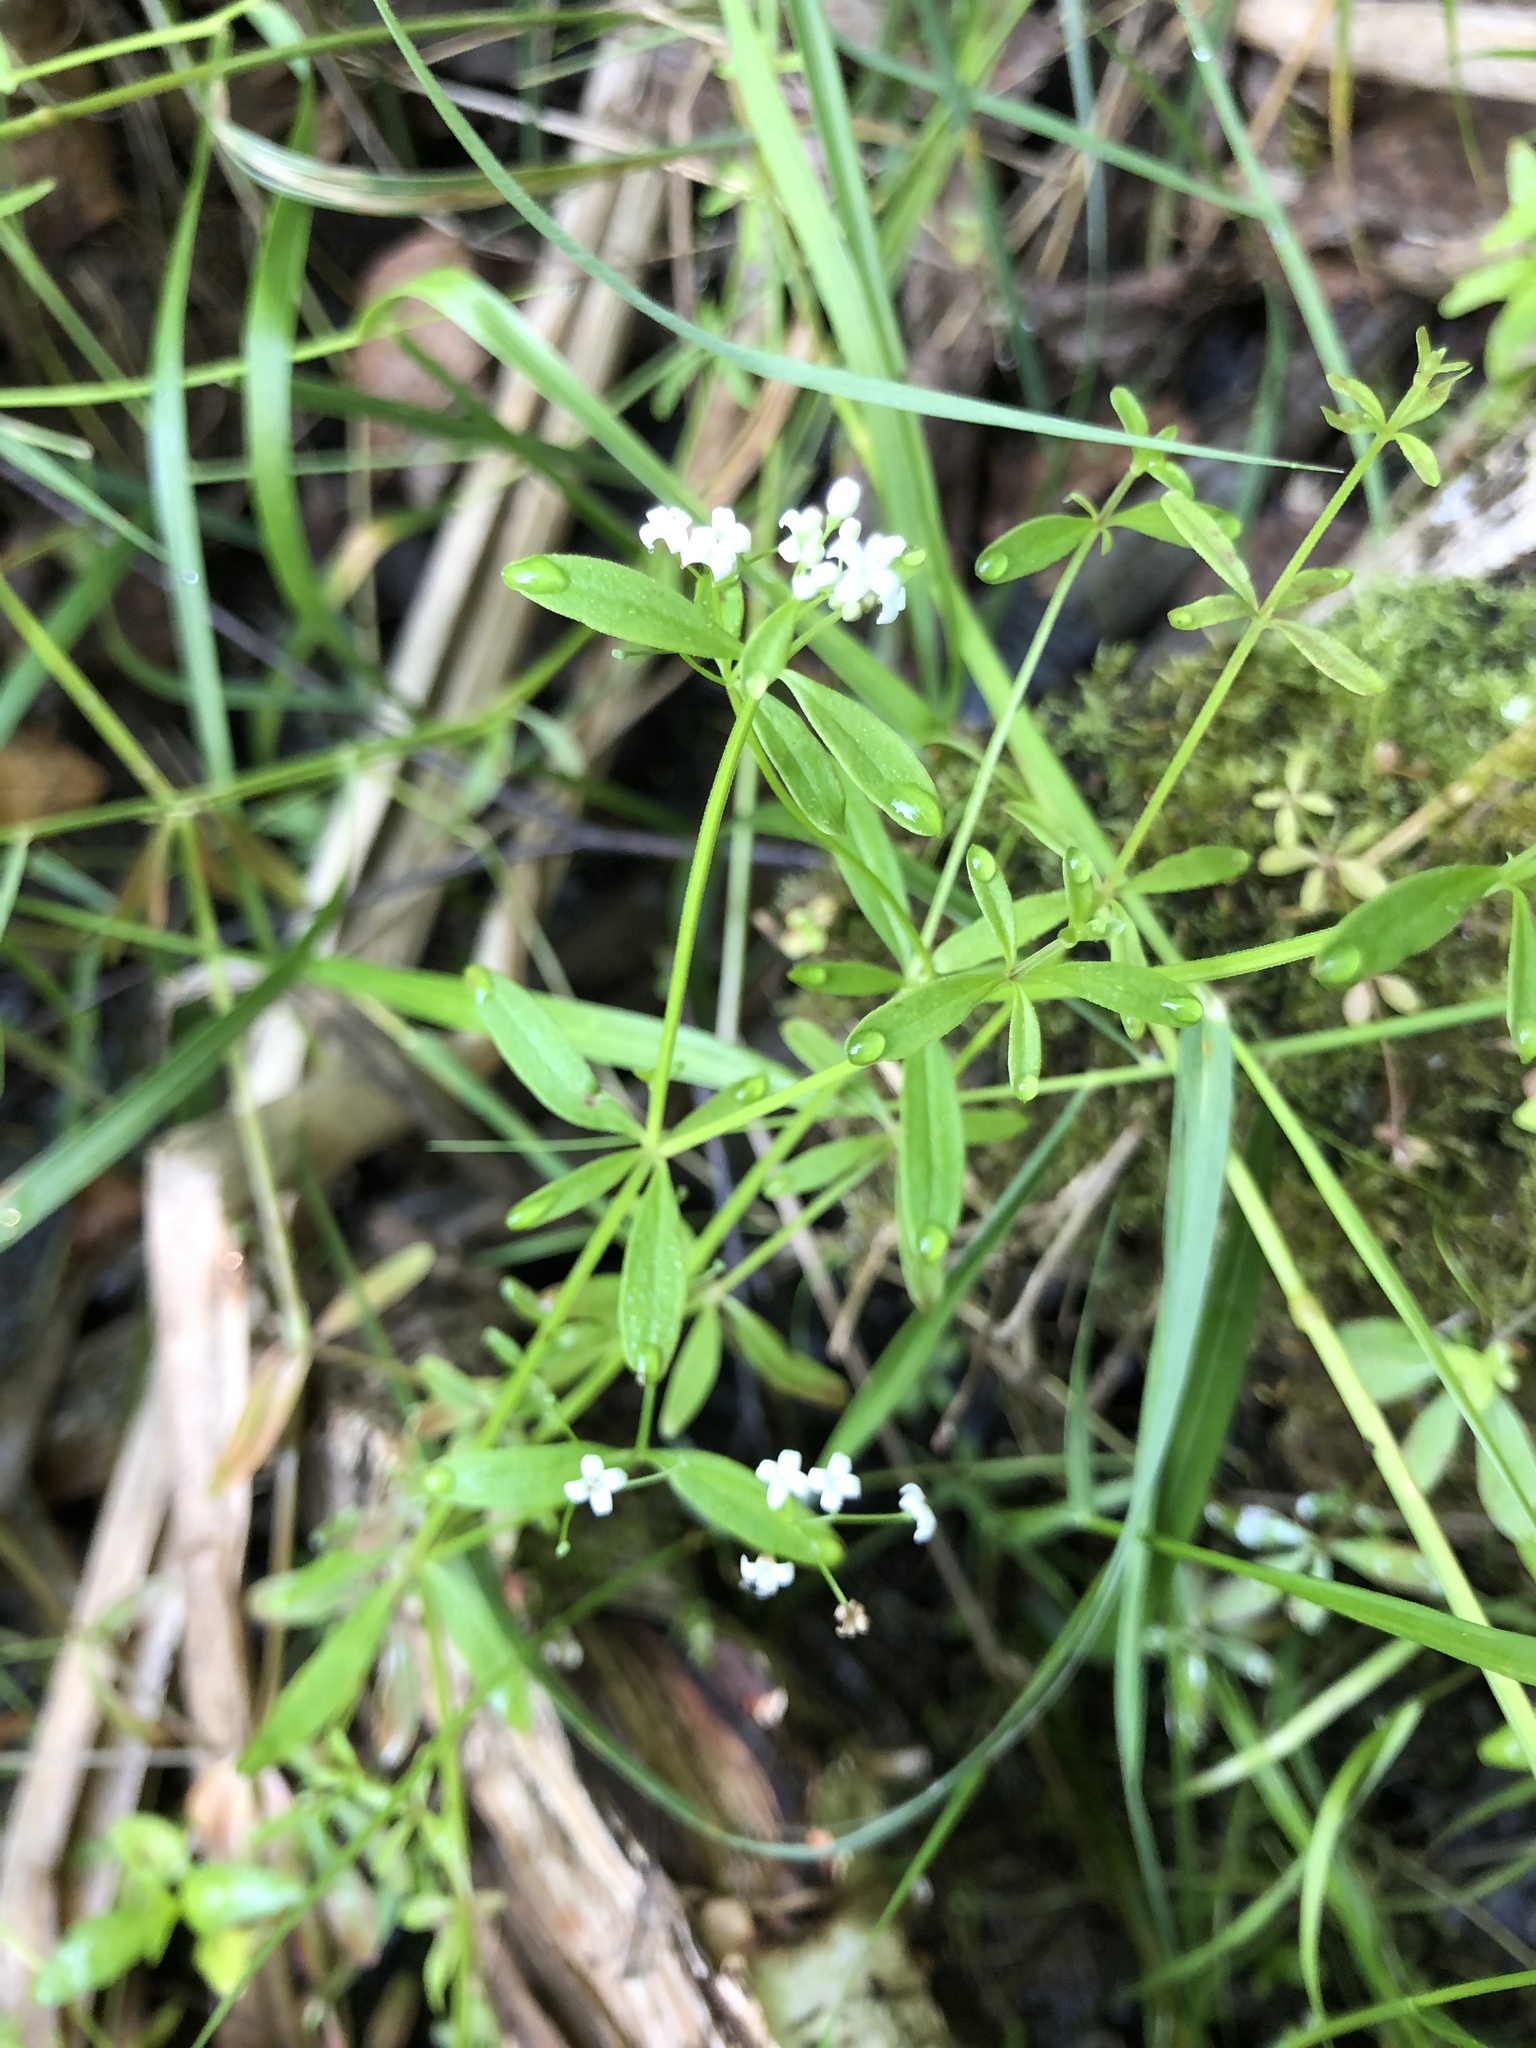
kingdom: Plantae
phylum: Tracheophyta
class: Magnoliopsida
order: Gentianales
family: Rubiaceae
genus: Galium
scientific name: Galium palustre
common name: Common marsh-bedstraw
